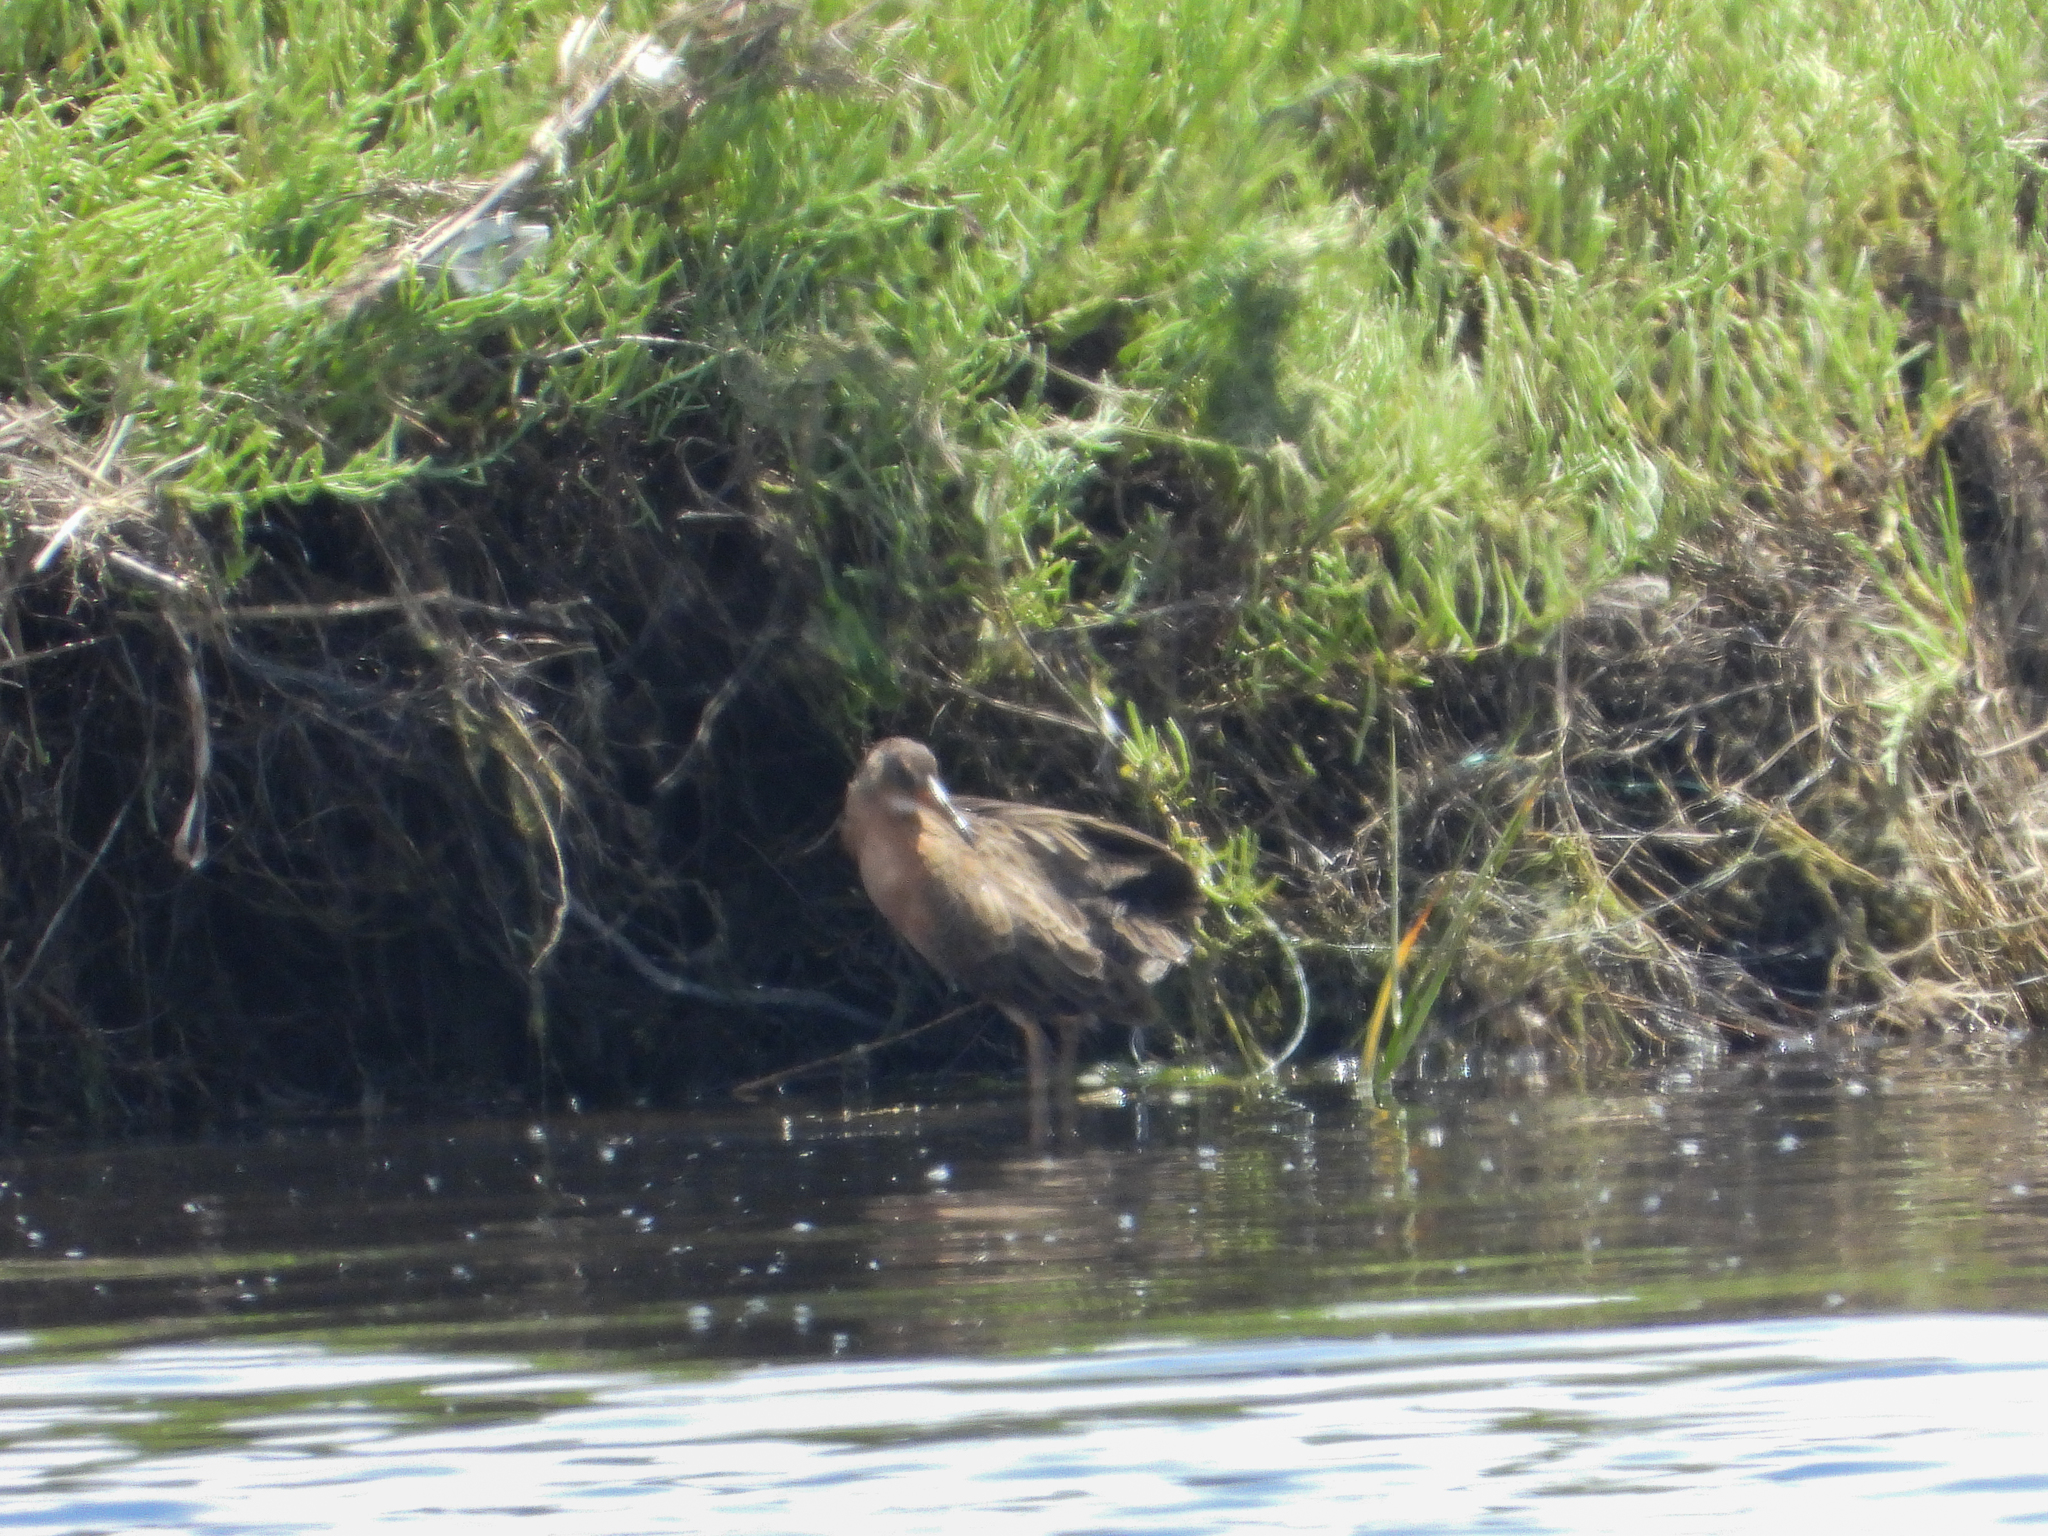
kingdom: Animalia
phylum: Chordata
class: Aves
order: Gruiformes
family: Rallidae
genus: Rallus
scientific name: Rallus obsoletus
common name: Ridgway's rail
